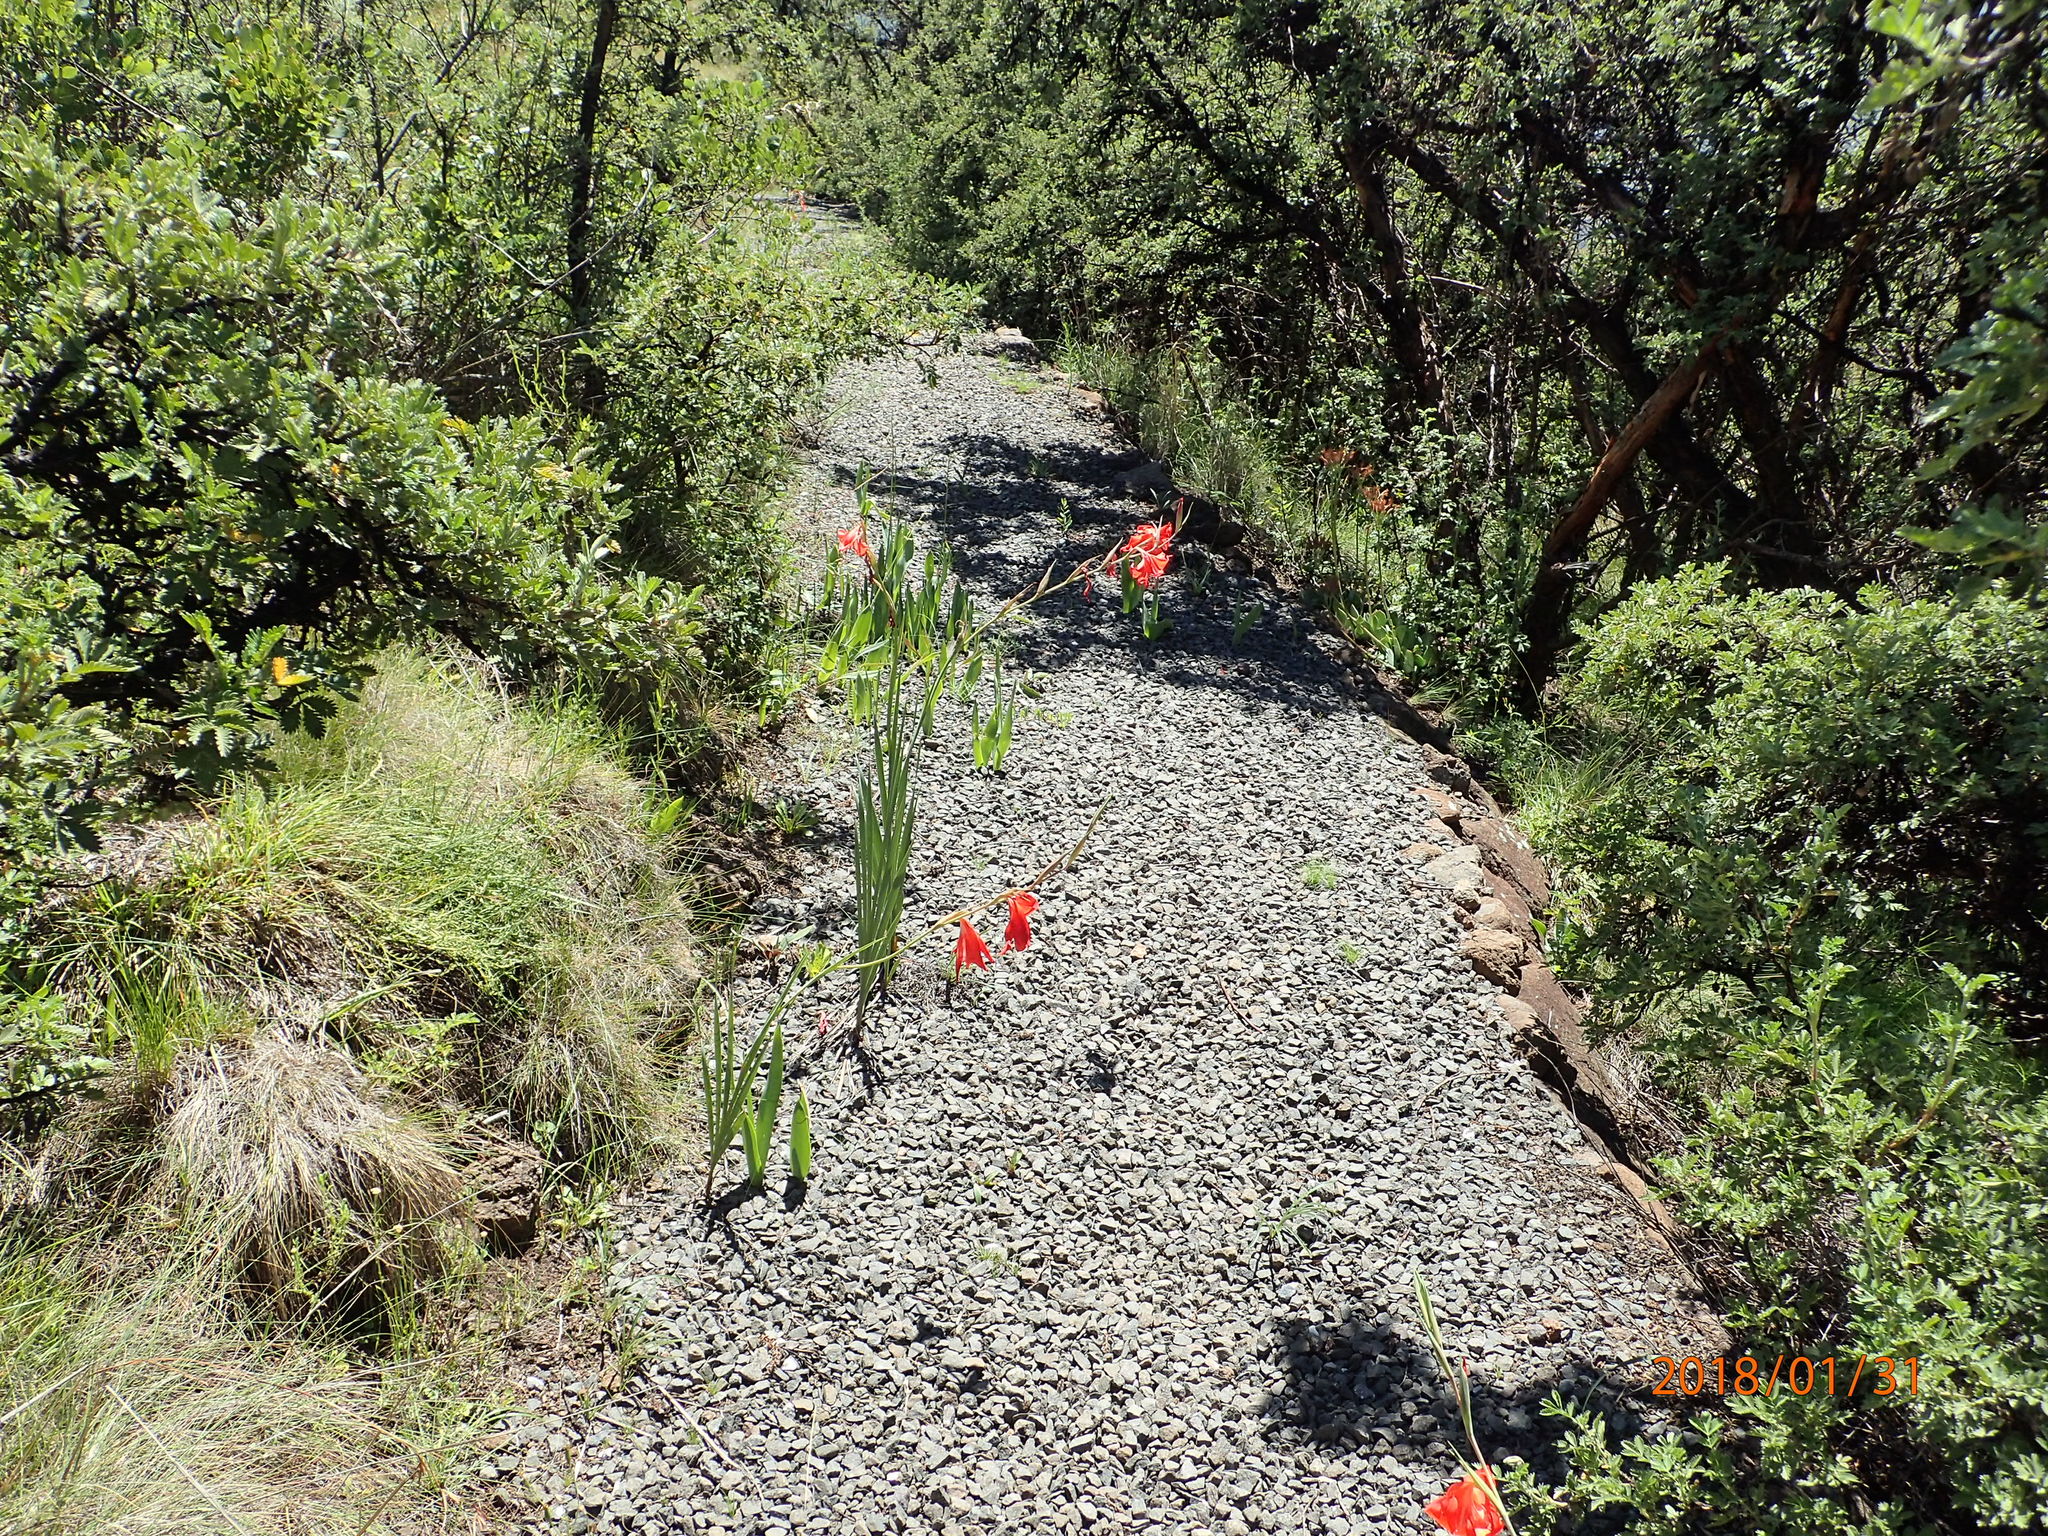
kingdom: Plantae
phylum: Tracheophyta
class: Liliopsida
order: Asparagales
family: Iridaceae
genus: Gladiolus
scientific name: Gladiolus saundersii
